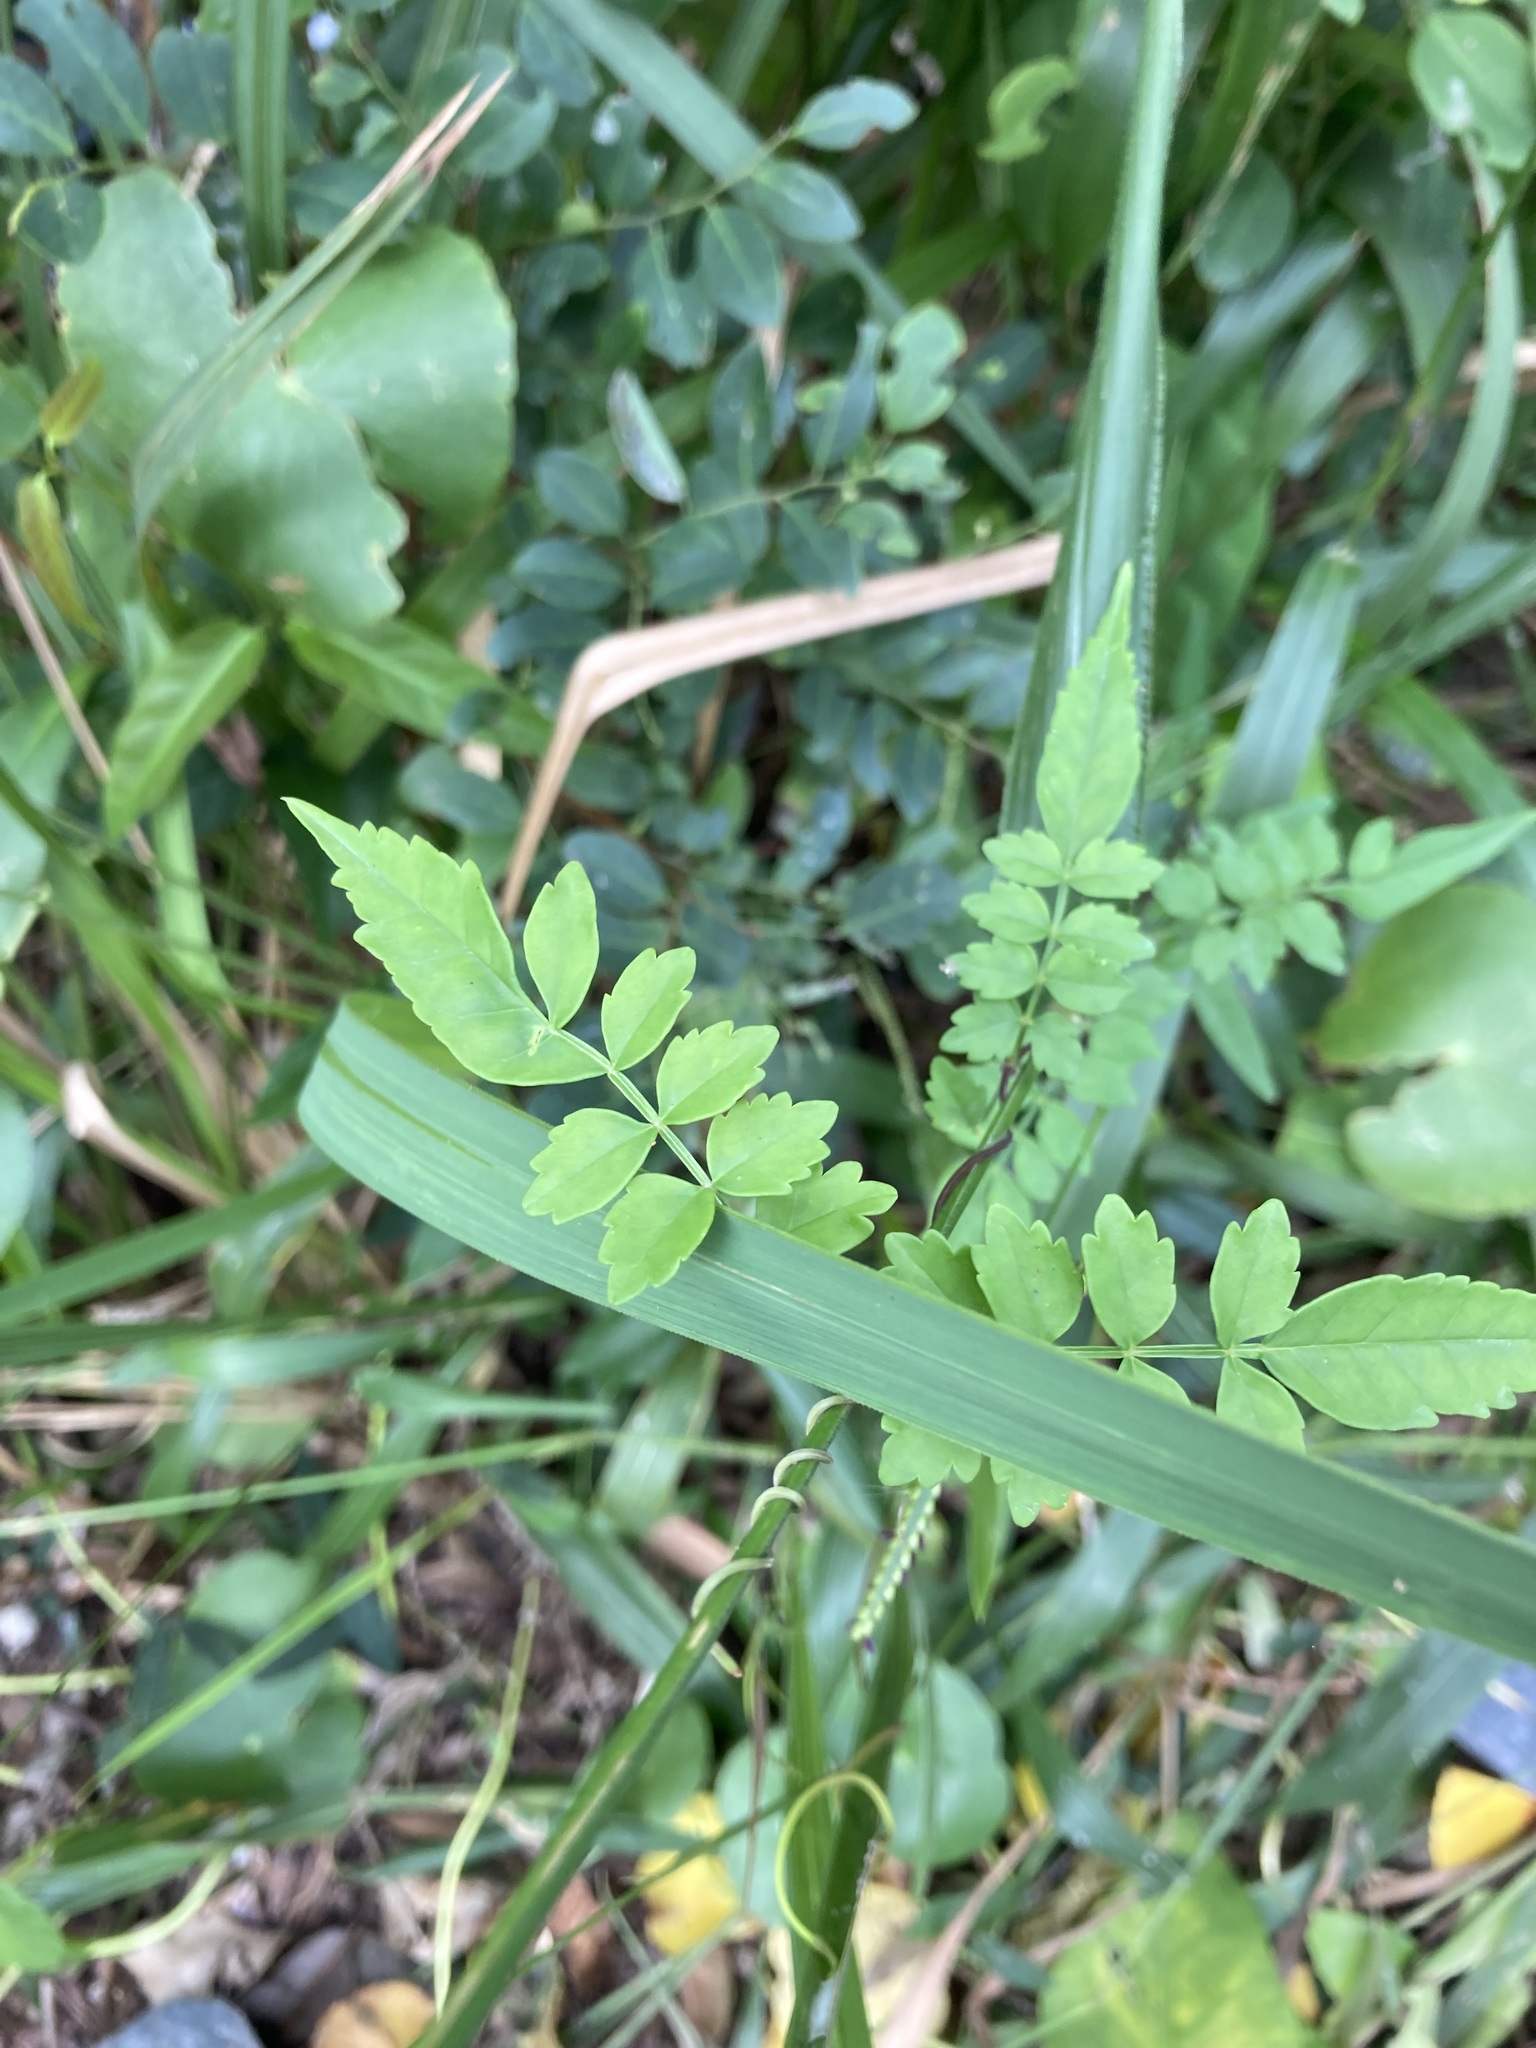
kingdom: Plantae
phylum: Tracheophyta
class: Magnoliopsida
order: Lamiales
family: Bignoniaceae
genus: Pandorea
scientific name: Pandorea pandorana
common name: Wonga-wonga-vine
